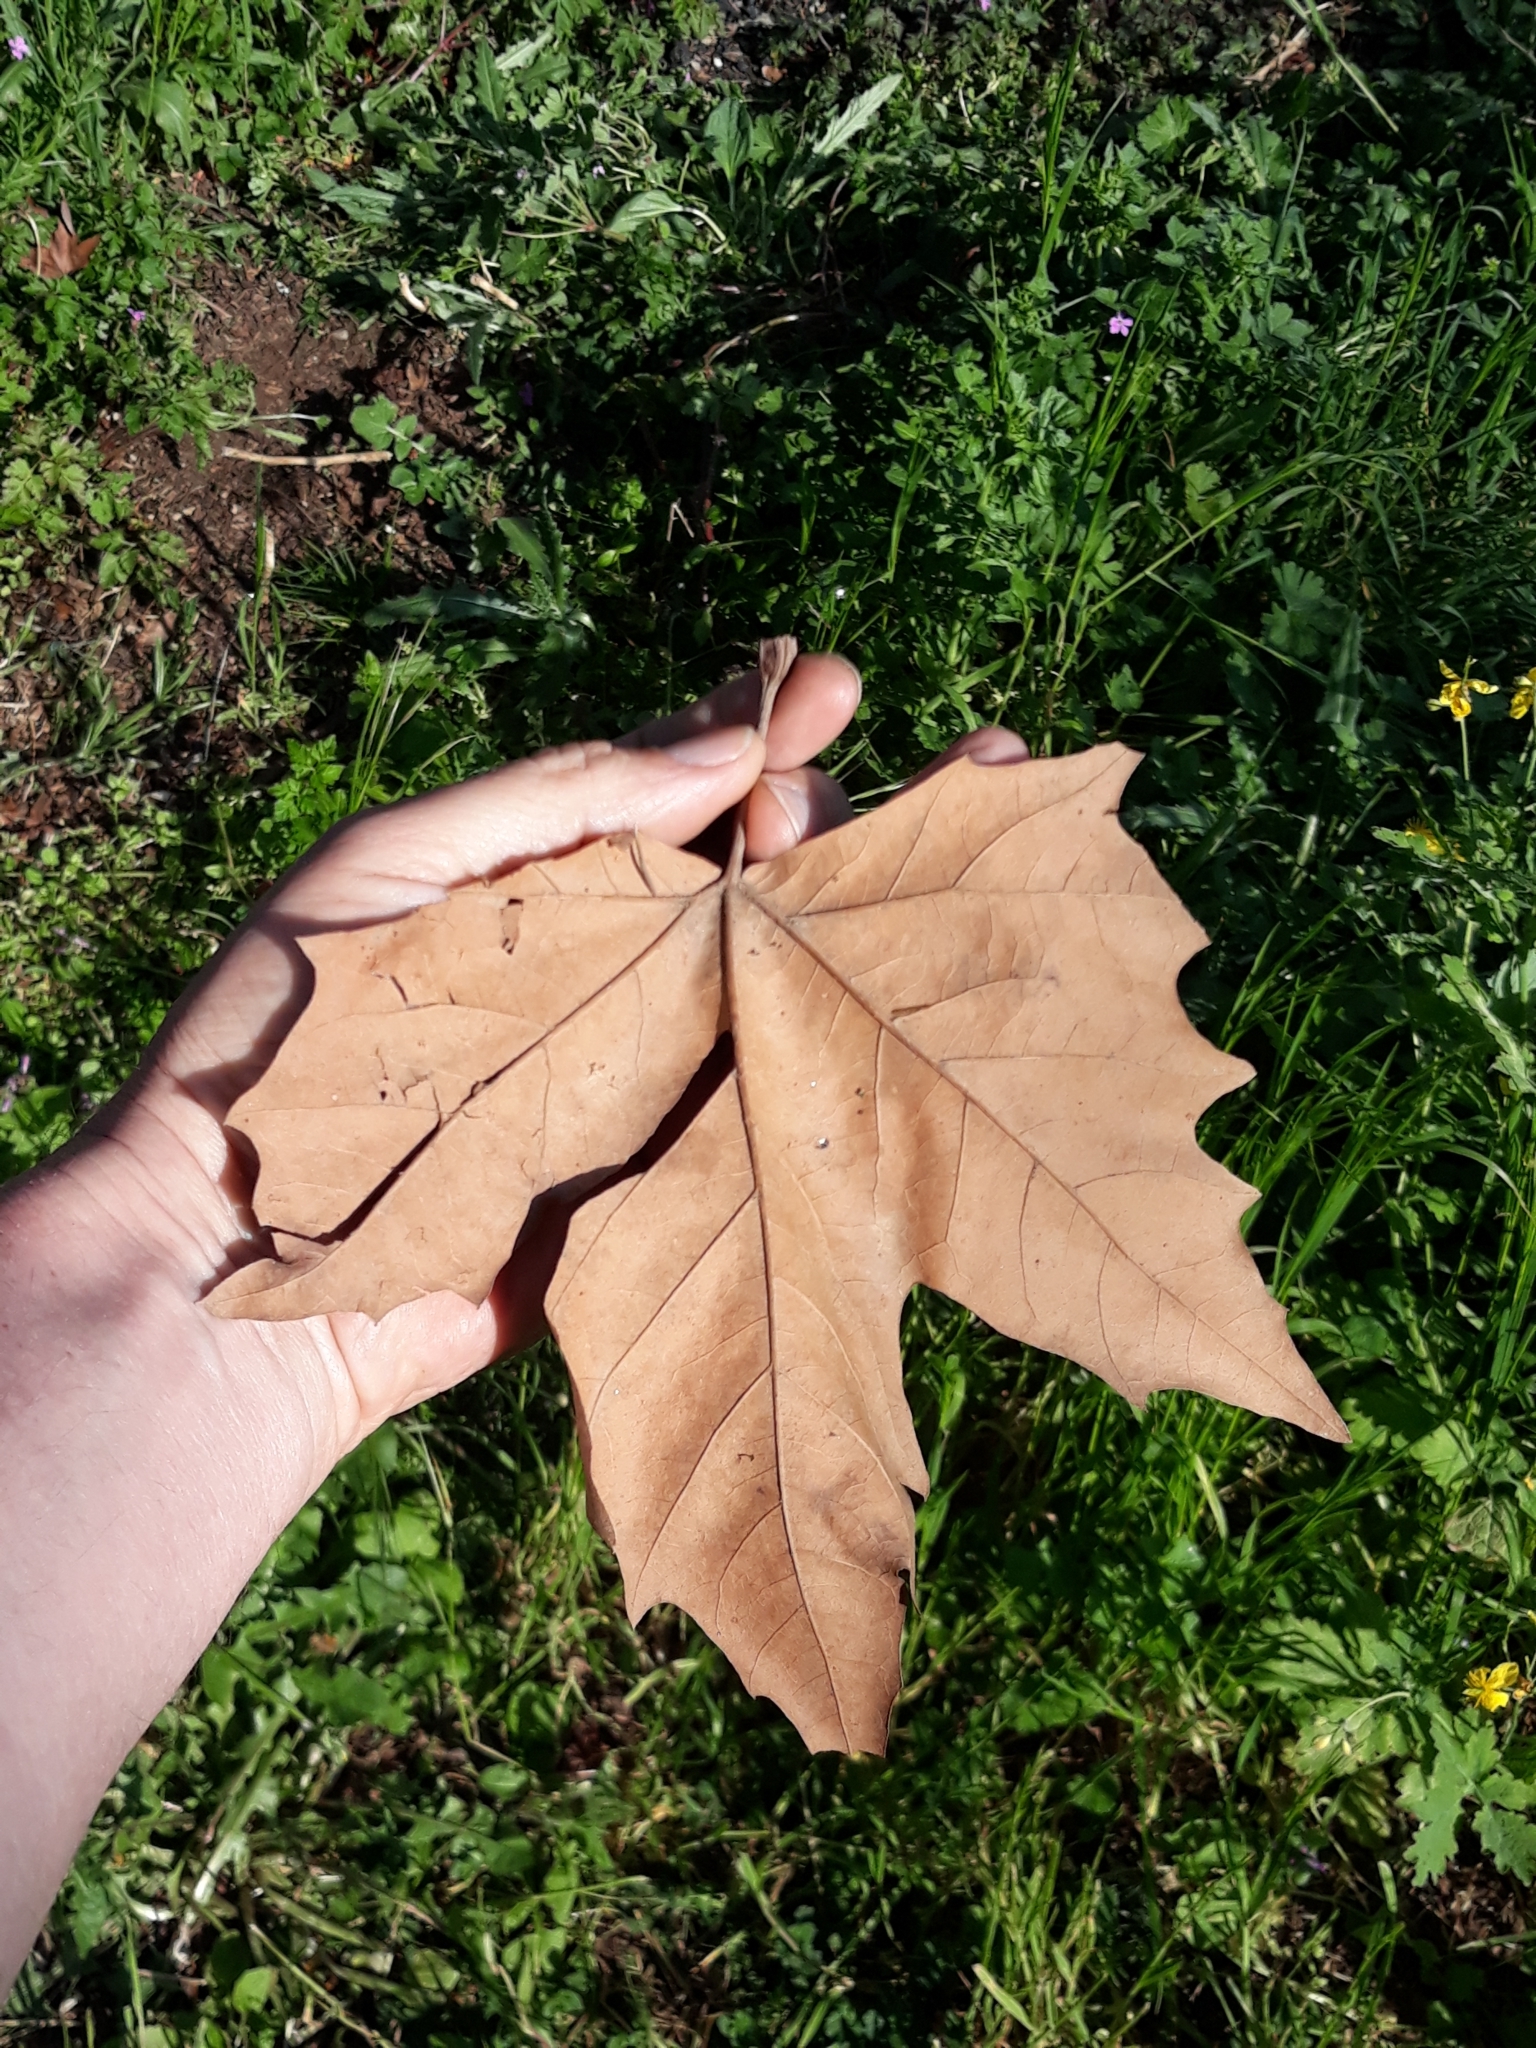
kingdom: Plantae
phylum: Tracheophyta
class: Magnoliopsida
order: Proteales
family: Platanaceae
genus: Platanus
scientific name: Platanus hispanica
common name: London plane
